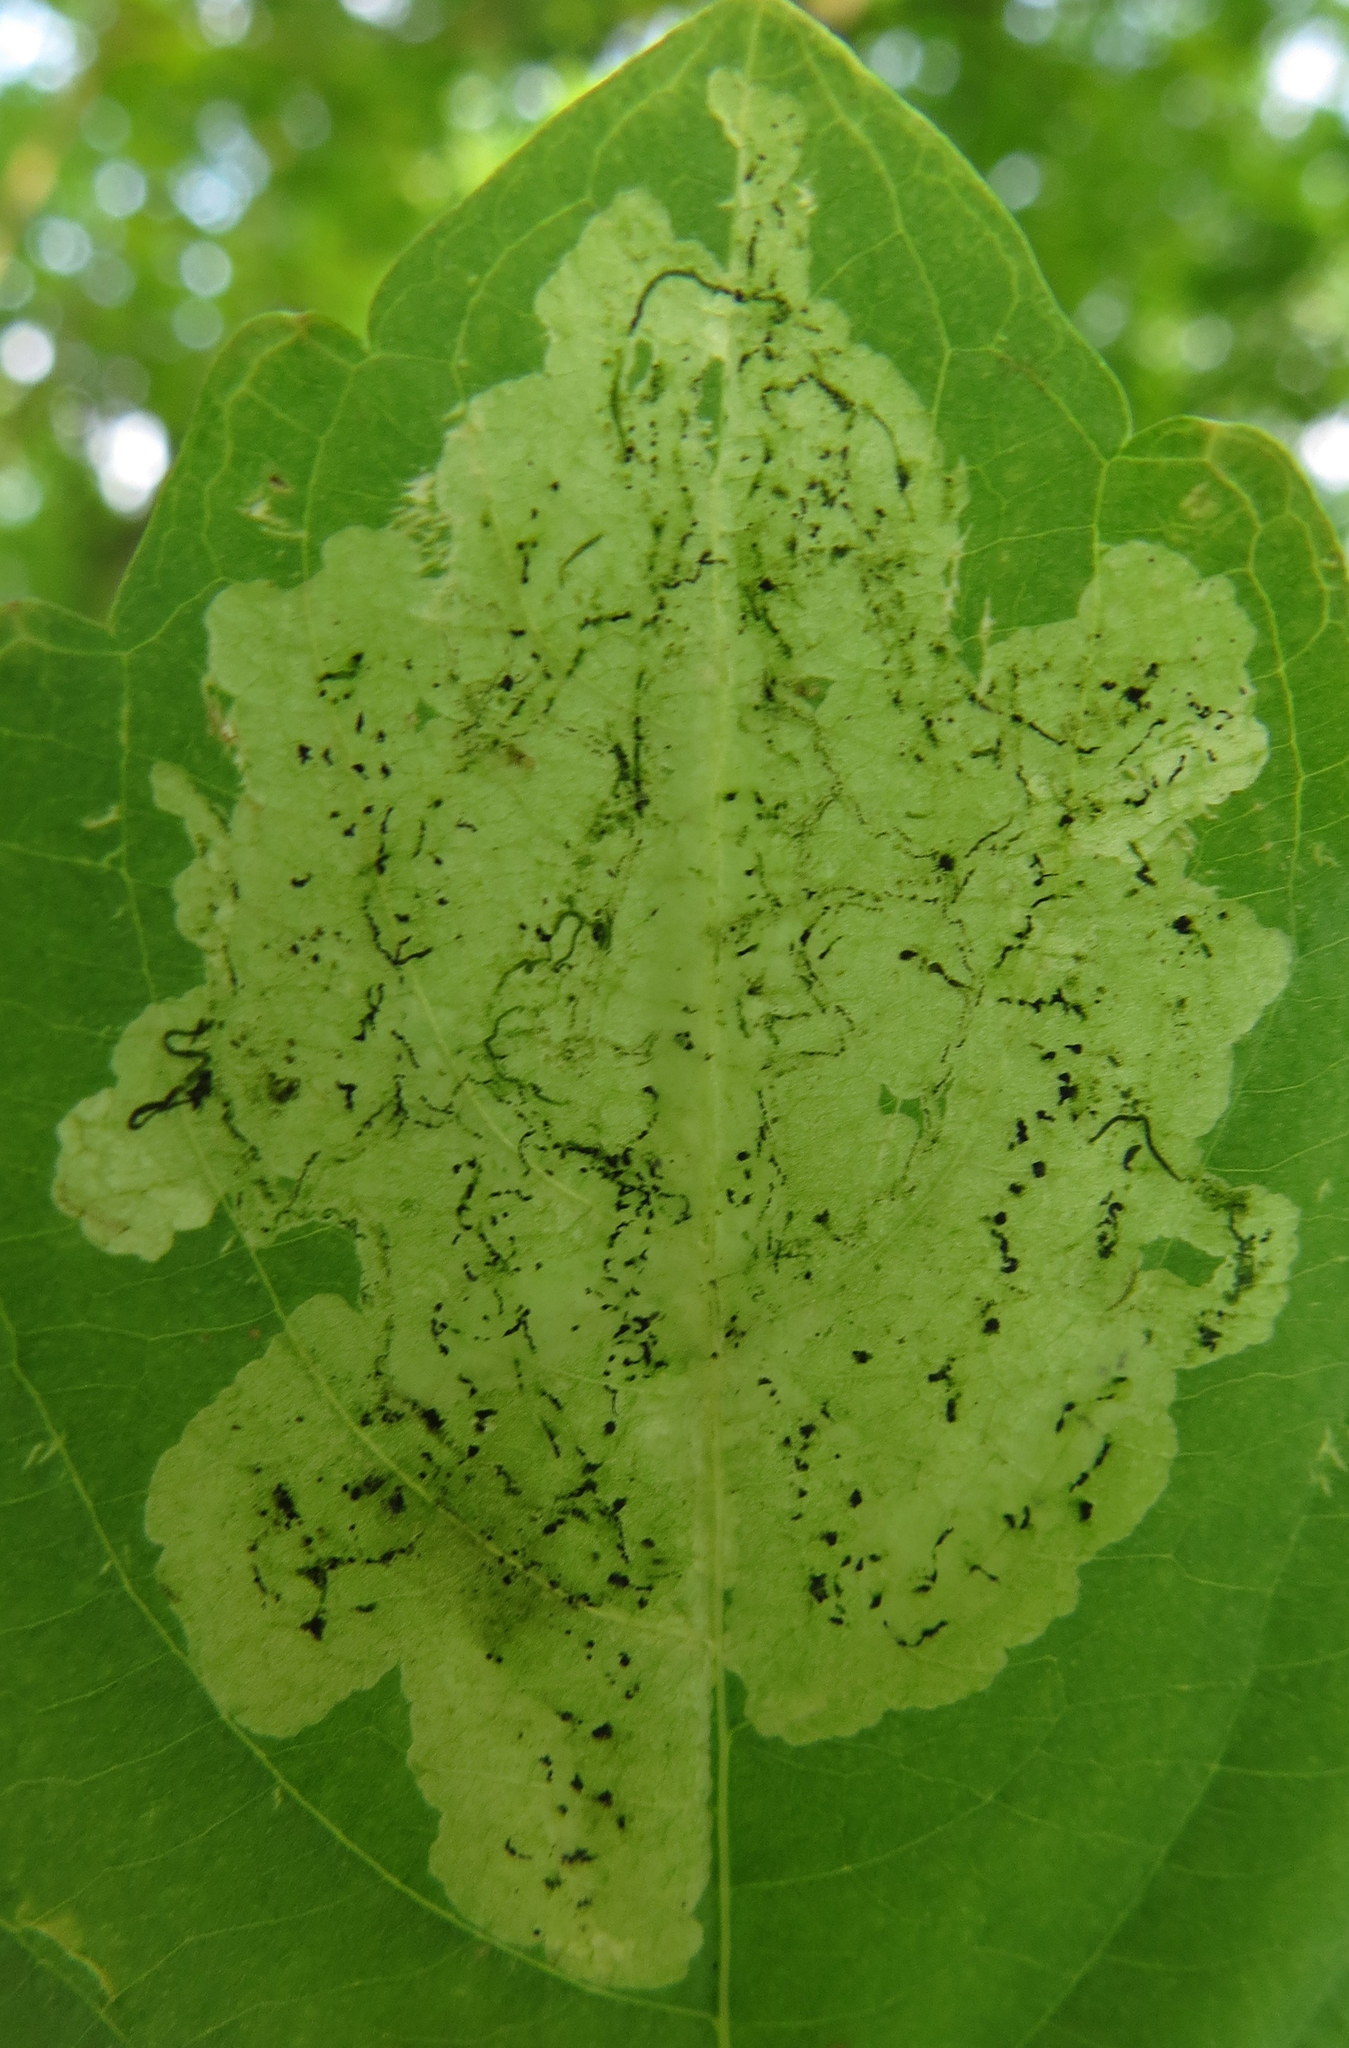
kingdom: Animalia
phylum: Arthropoda
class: Insecta
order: Diptera
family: Agromyzidae
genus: Phytoliriomyza
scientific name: Phytoliriomyza melampyga
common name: Jewelweed leaf-miner fly
